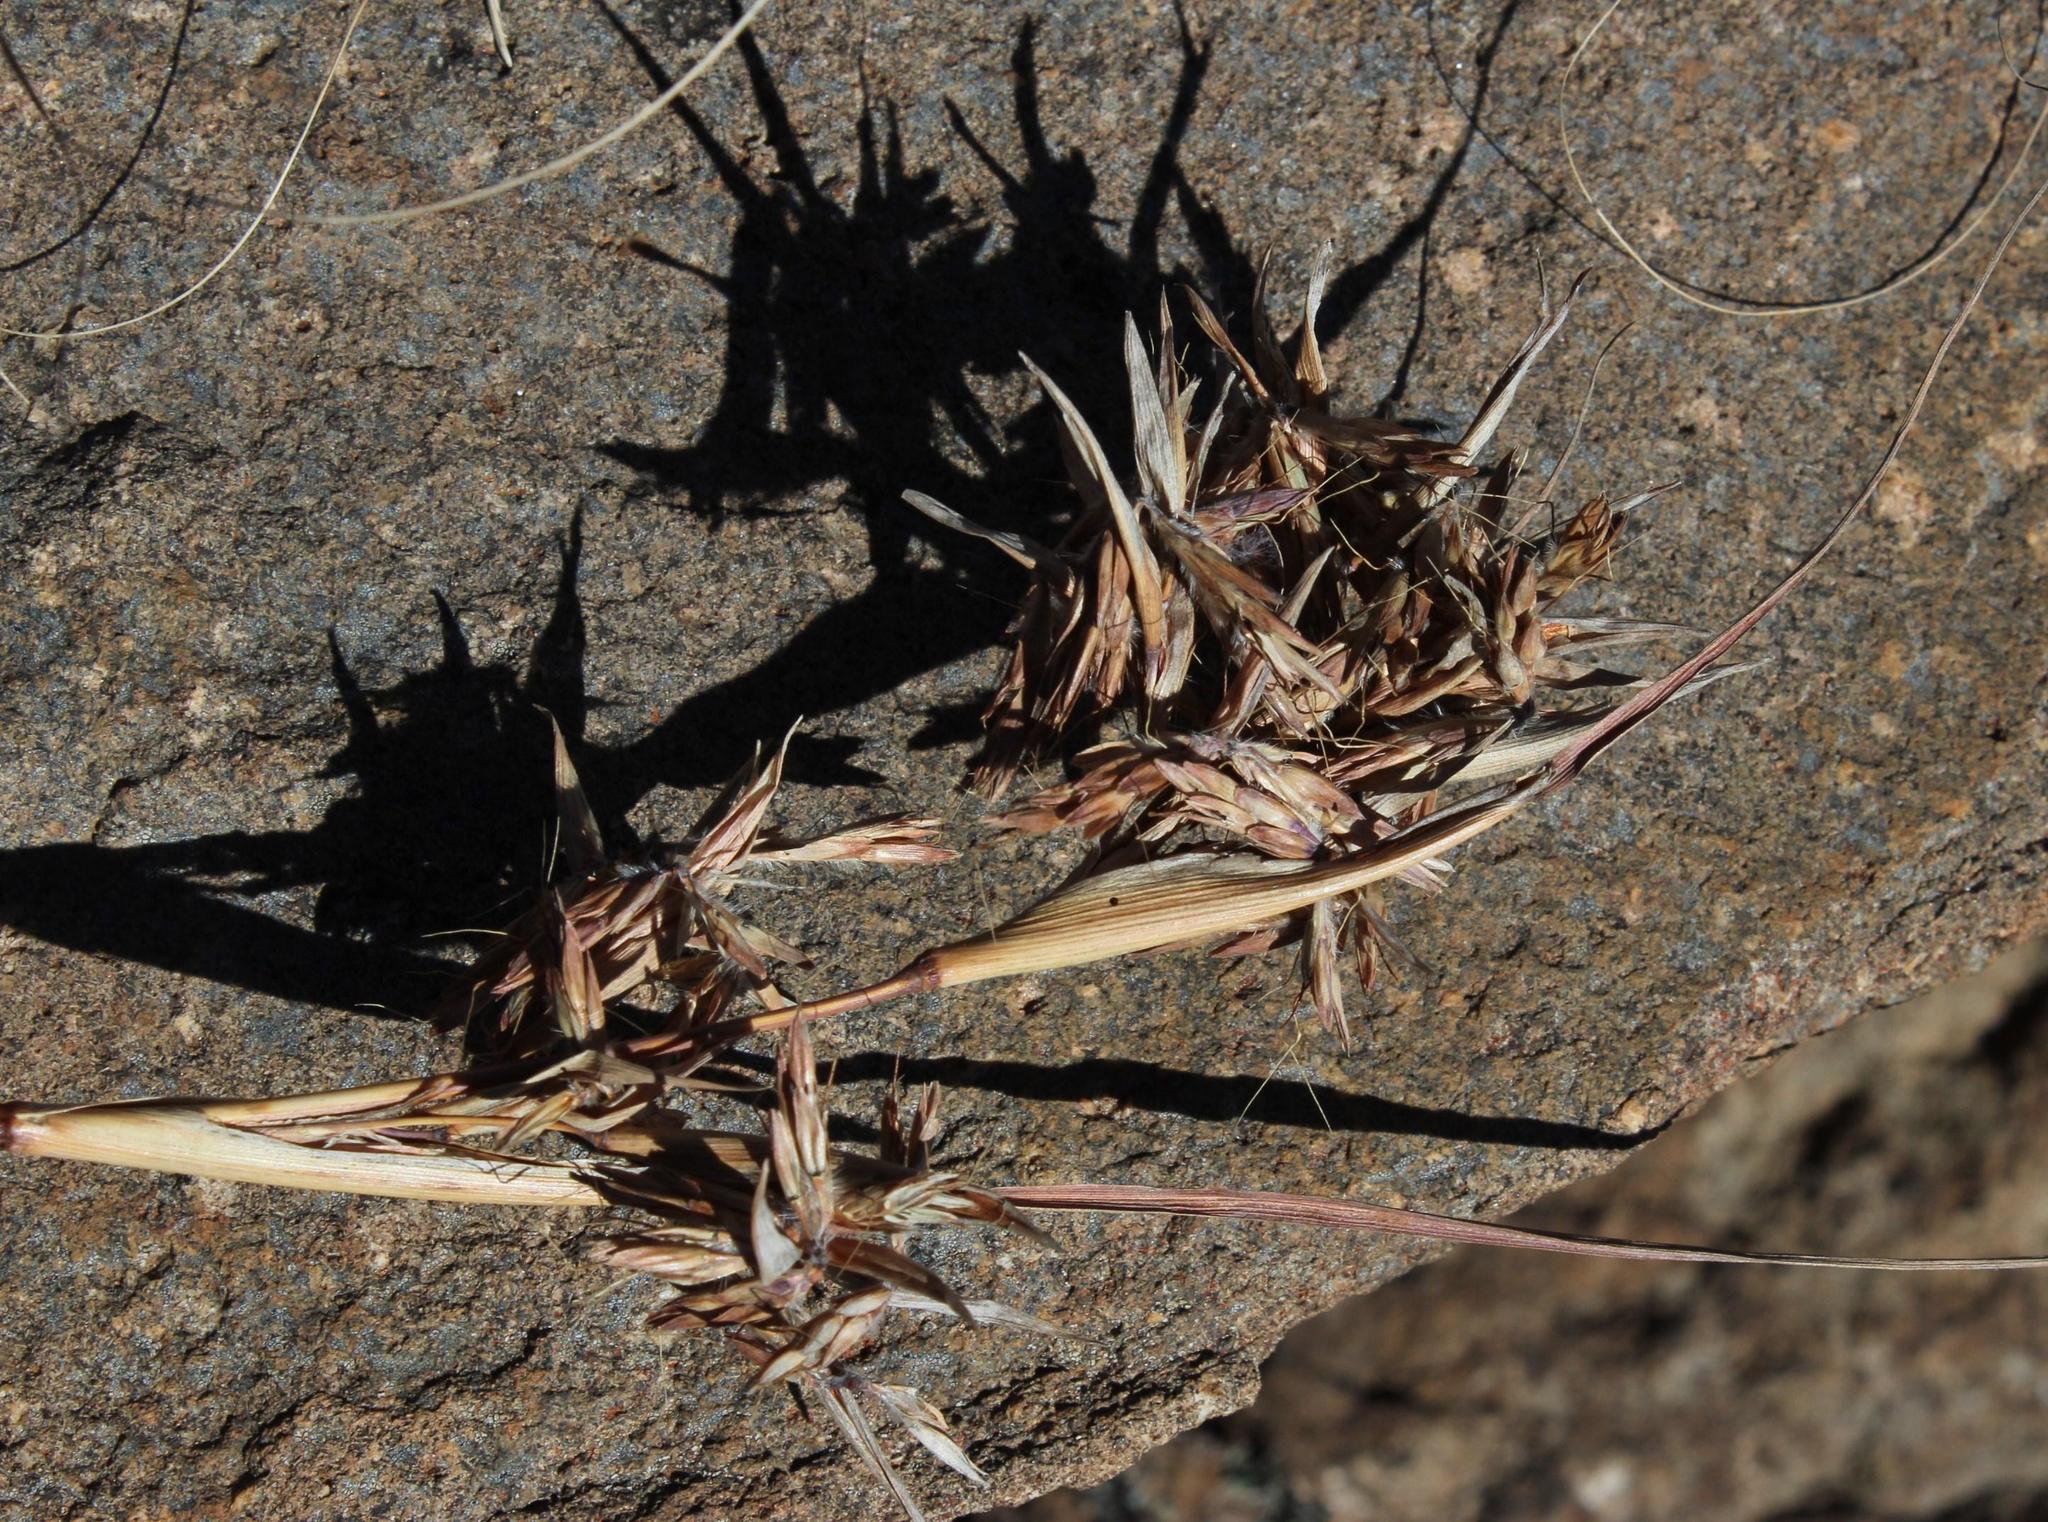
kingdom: Plantae
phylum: Tracheophyta
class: Liliopsida
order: Poales
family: Poaceae
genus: Cymbopogon
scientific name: Cymbopogon pospischilii
